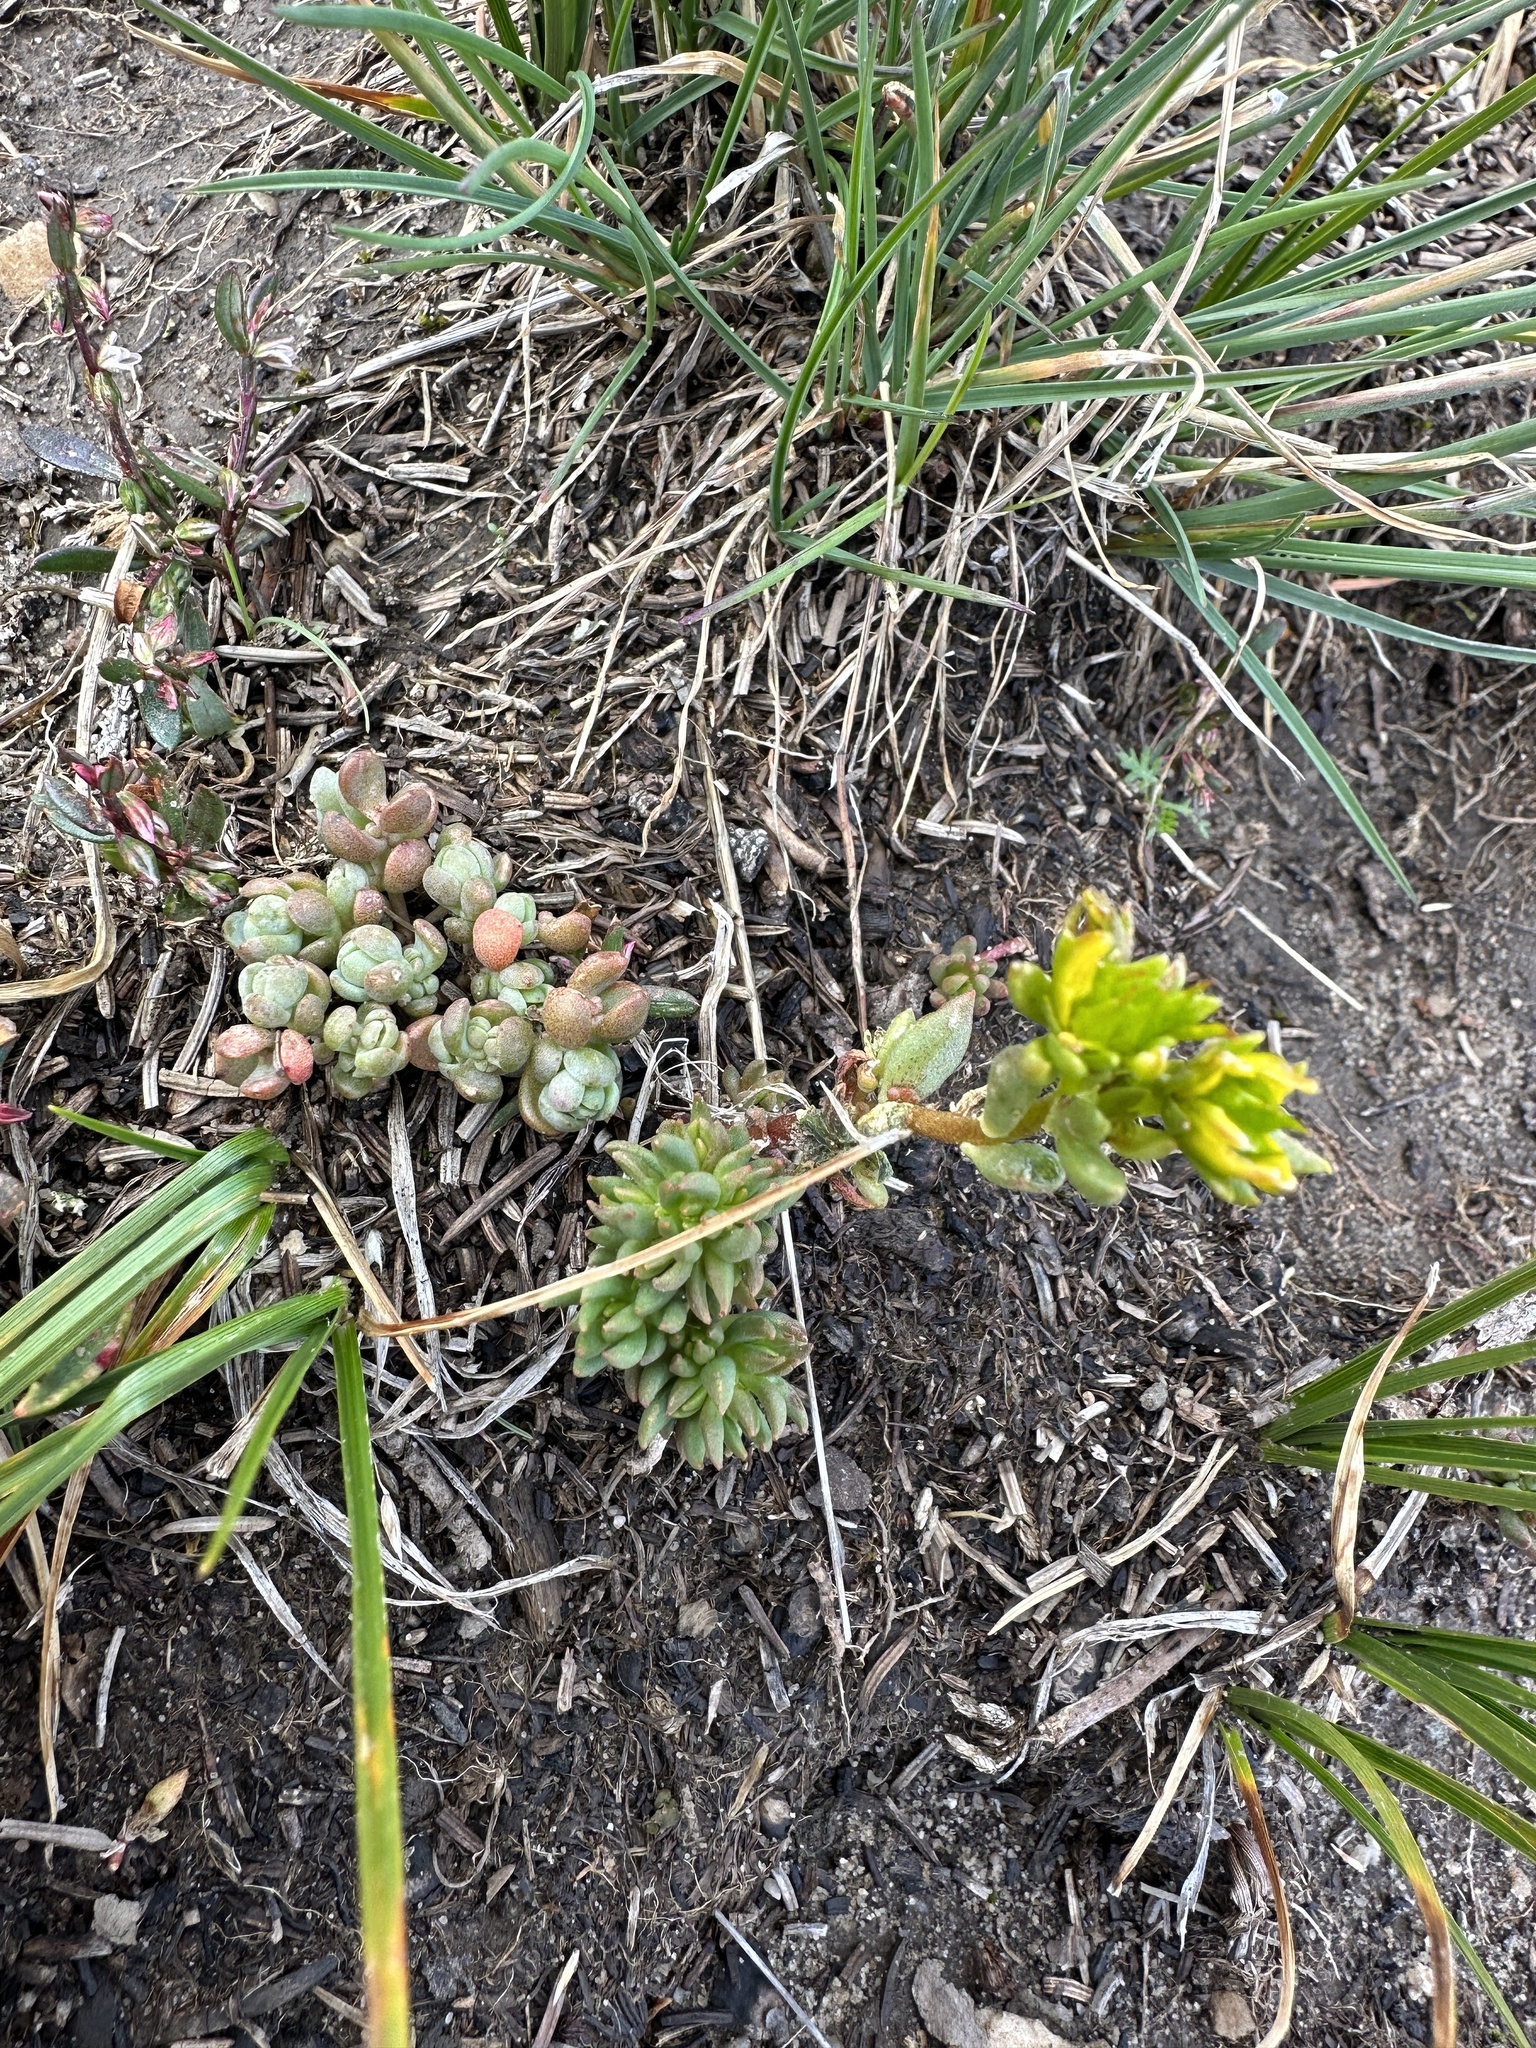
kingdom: Plantae
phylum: Tracheophyta
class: Magnoliopsida
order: Saxifragales
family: Crassulaceae
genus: Sedum
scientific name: Sedum debile
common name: Weak-stem stonecrop
